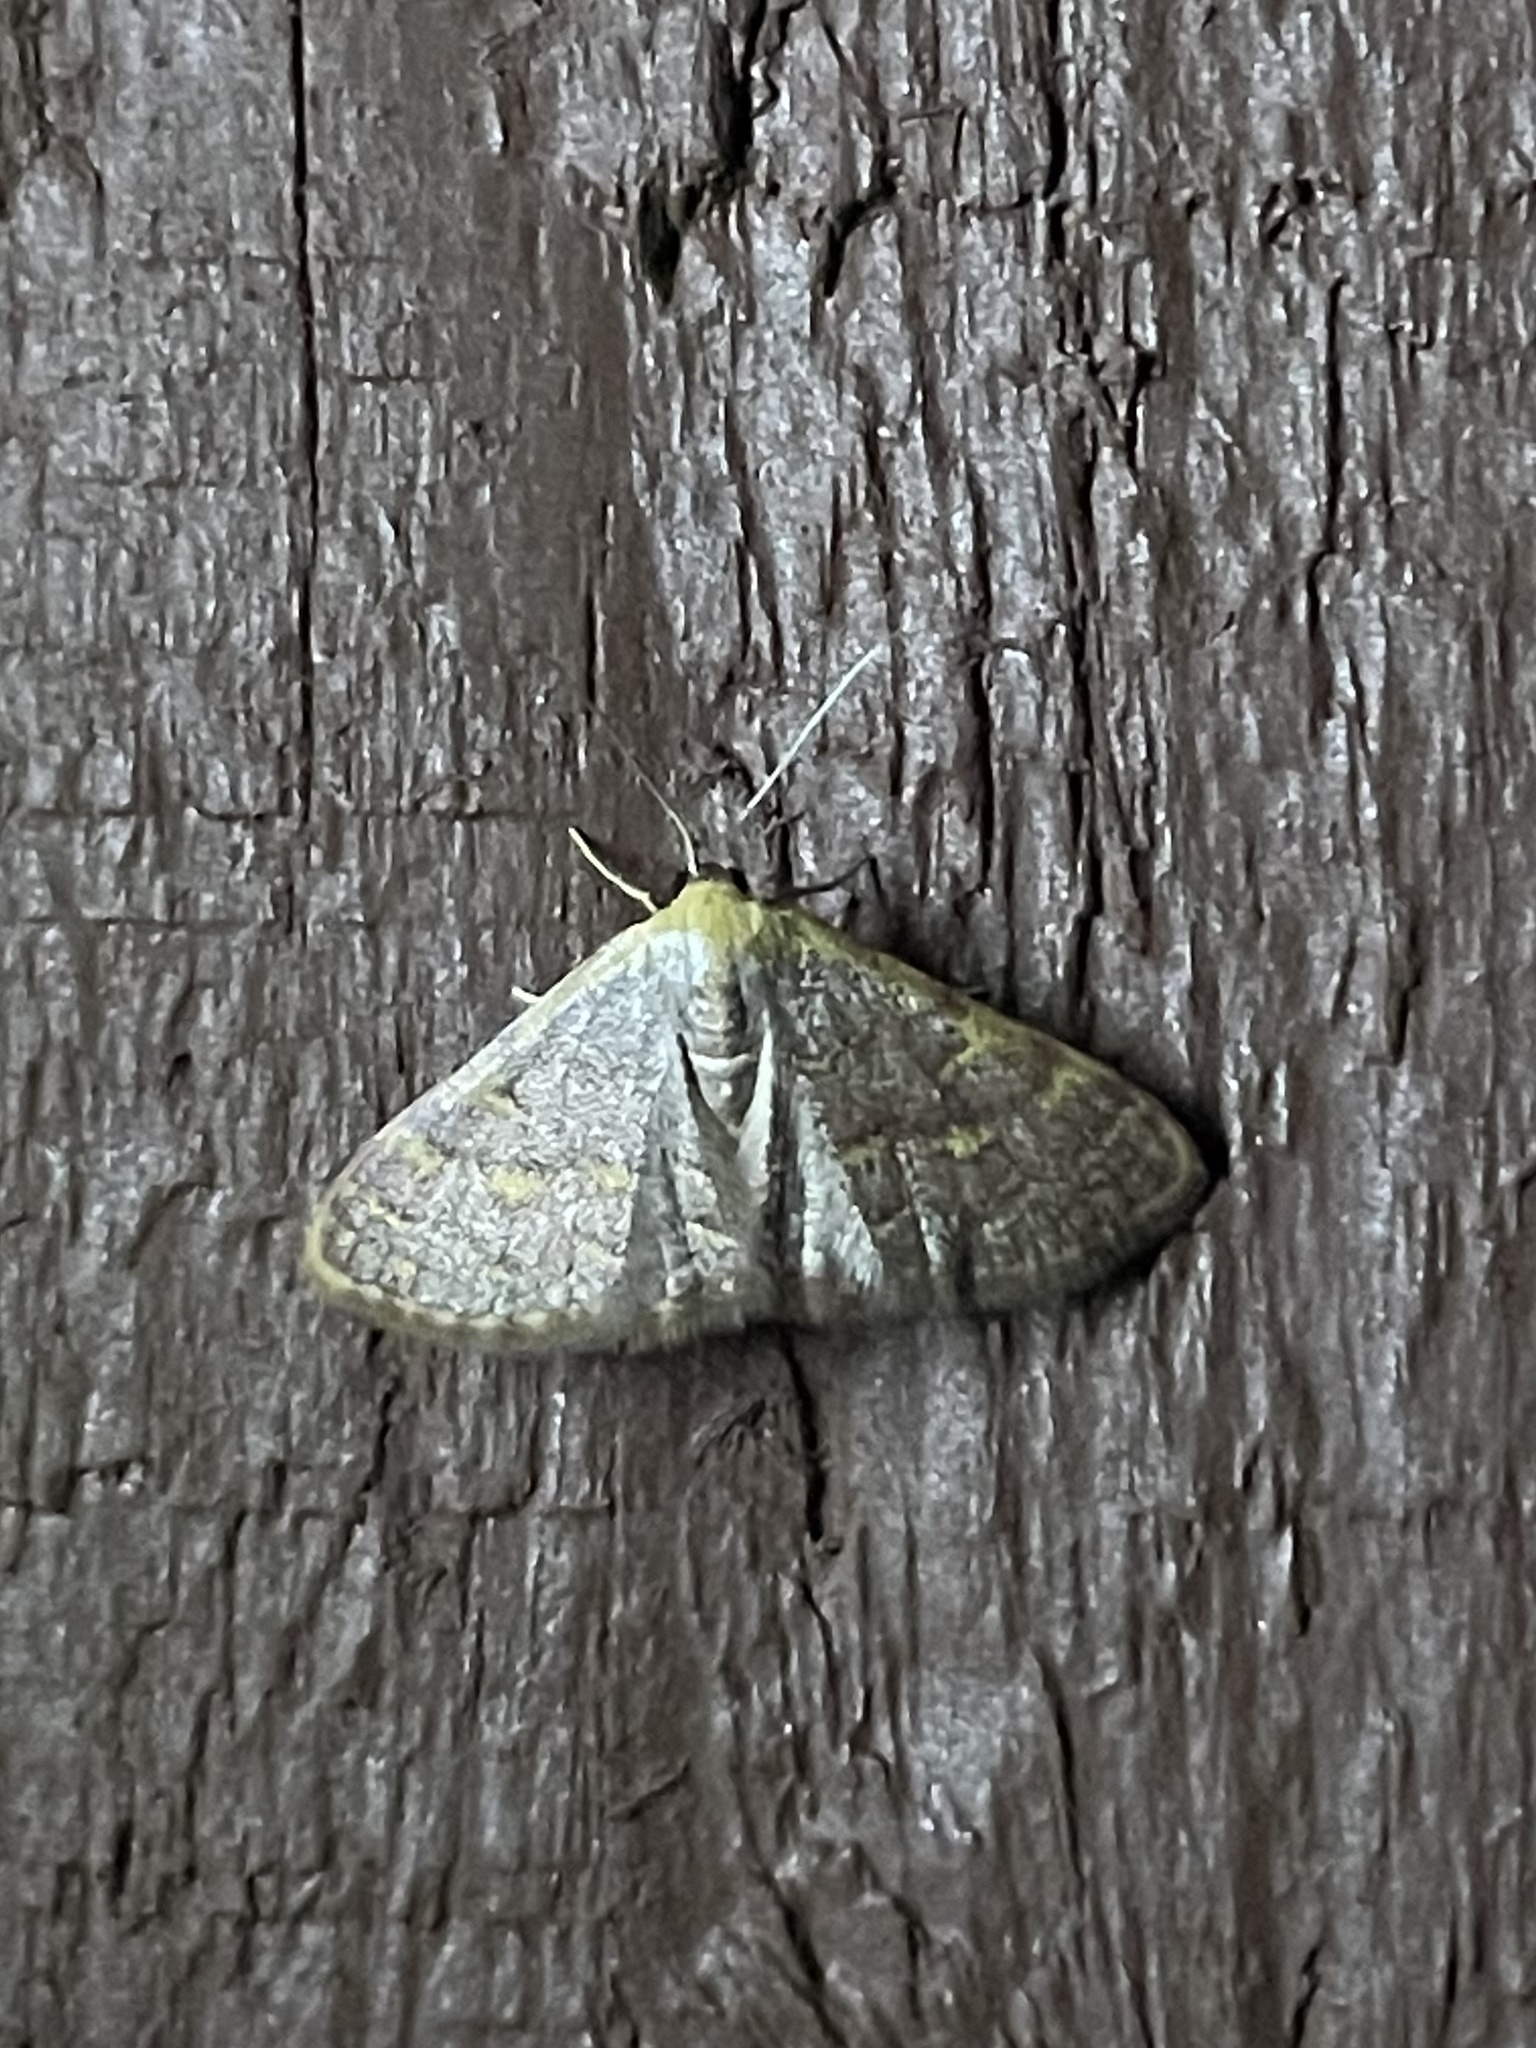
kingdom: Animalia
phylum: Arthropoda
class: Insecta
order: Lepidoptera
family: Geometridae
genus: Leptostales
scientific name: Leptostales pannaria
